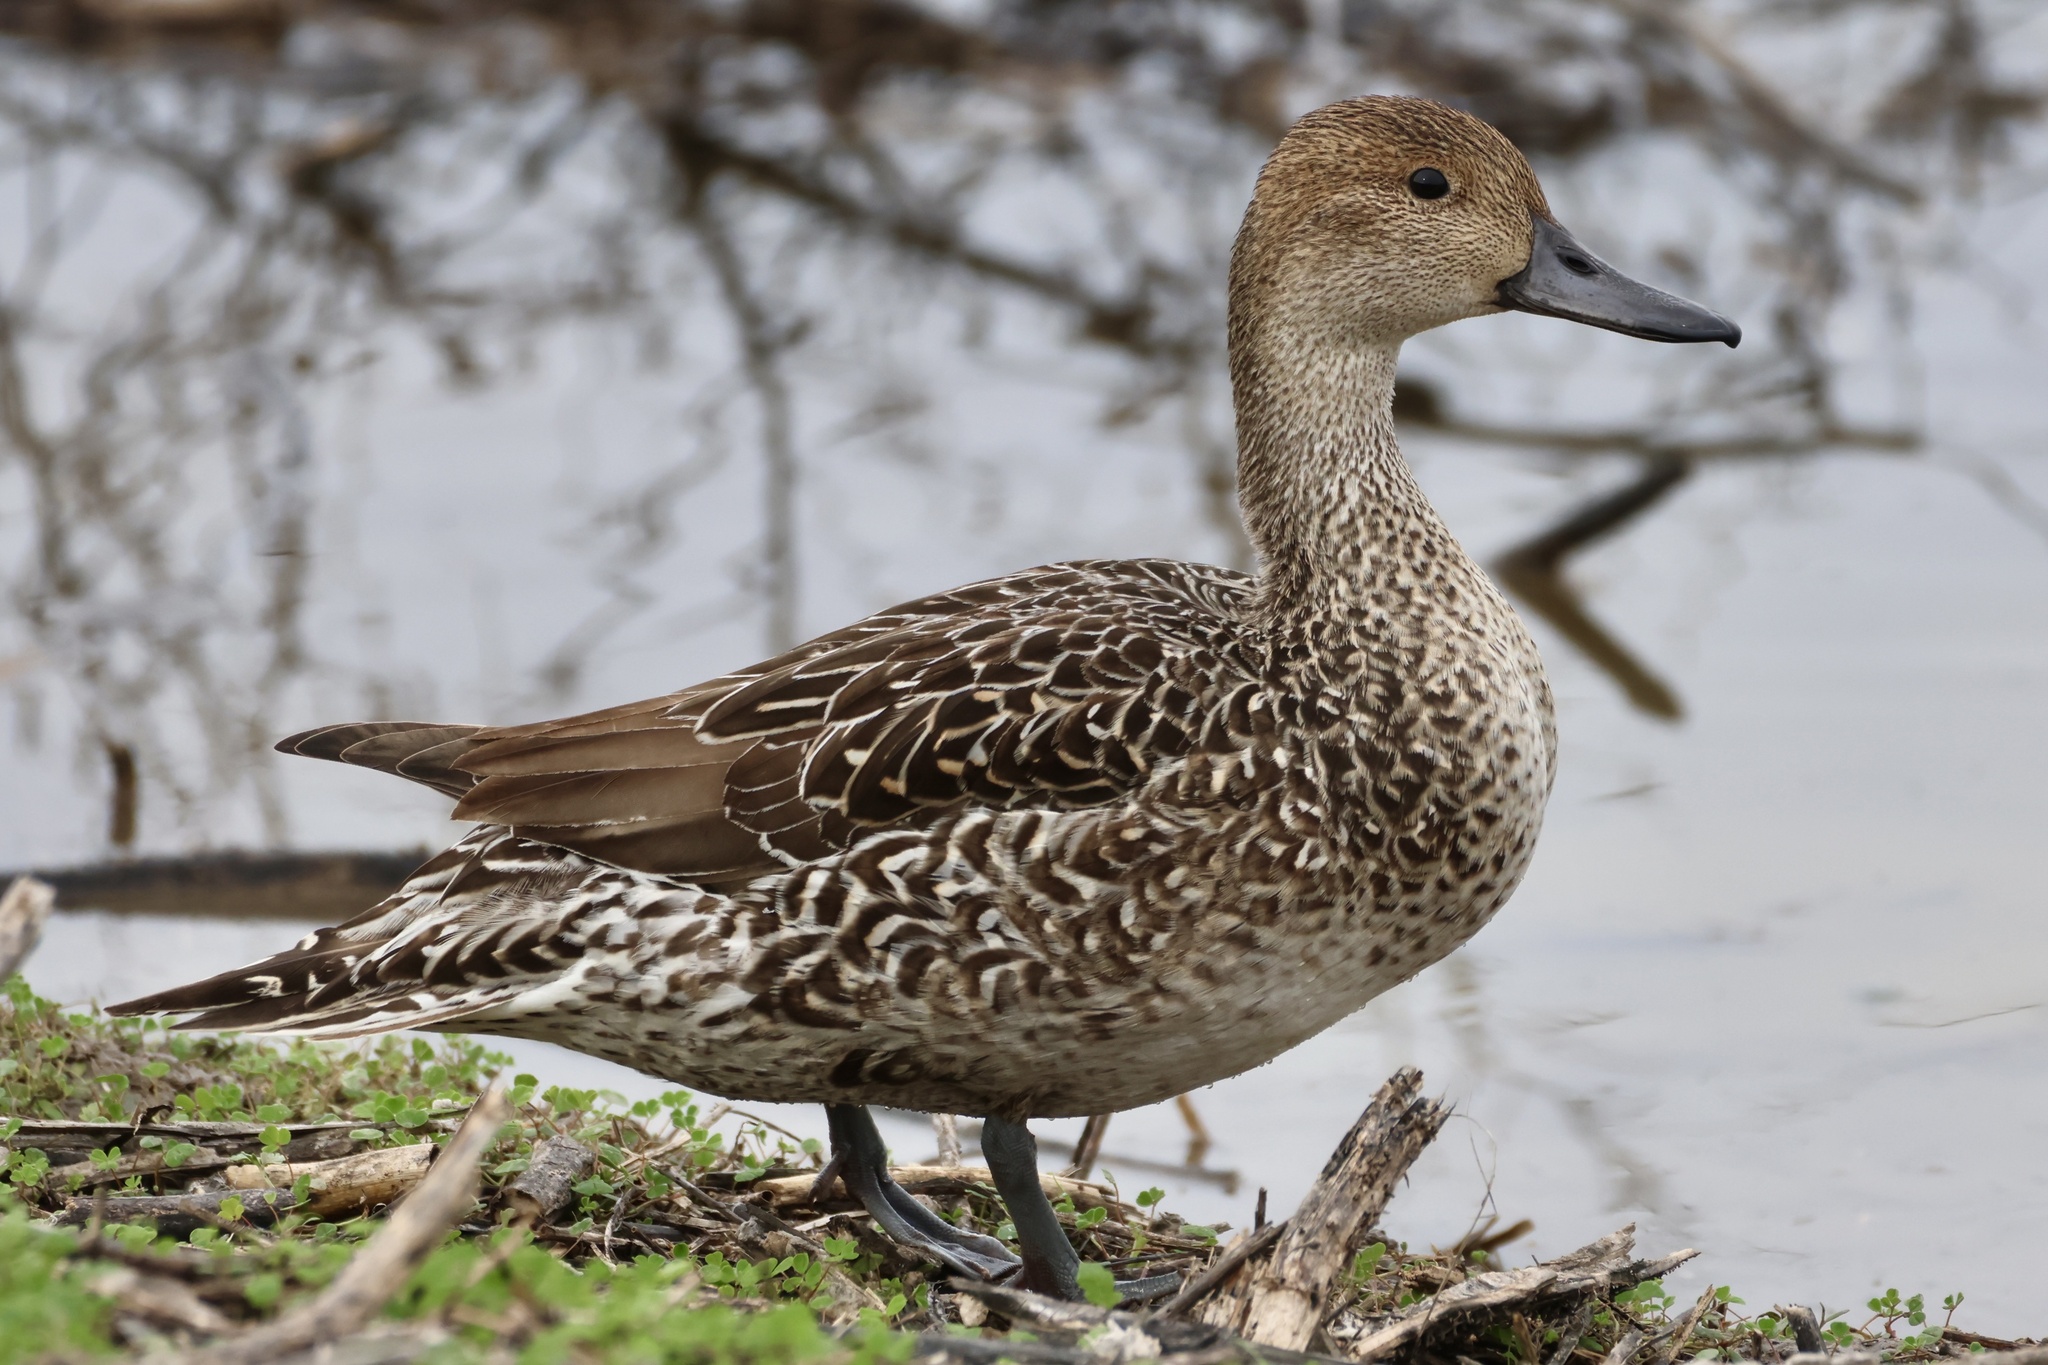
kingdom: Animalia
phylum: Chordata
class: Aves
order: Anseriformes
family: Anatidae
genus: Anas
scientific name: Anas acuta
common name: Northern pintail
